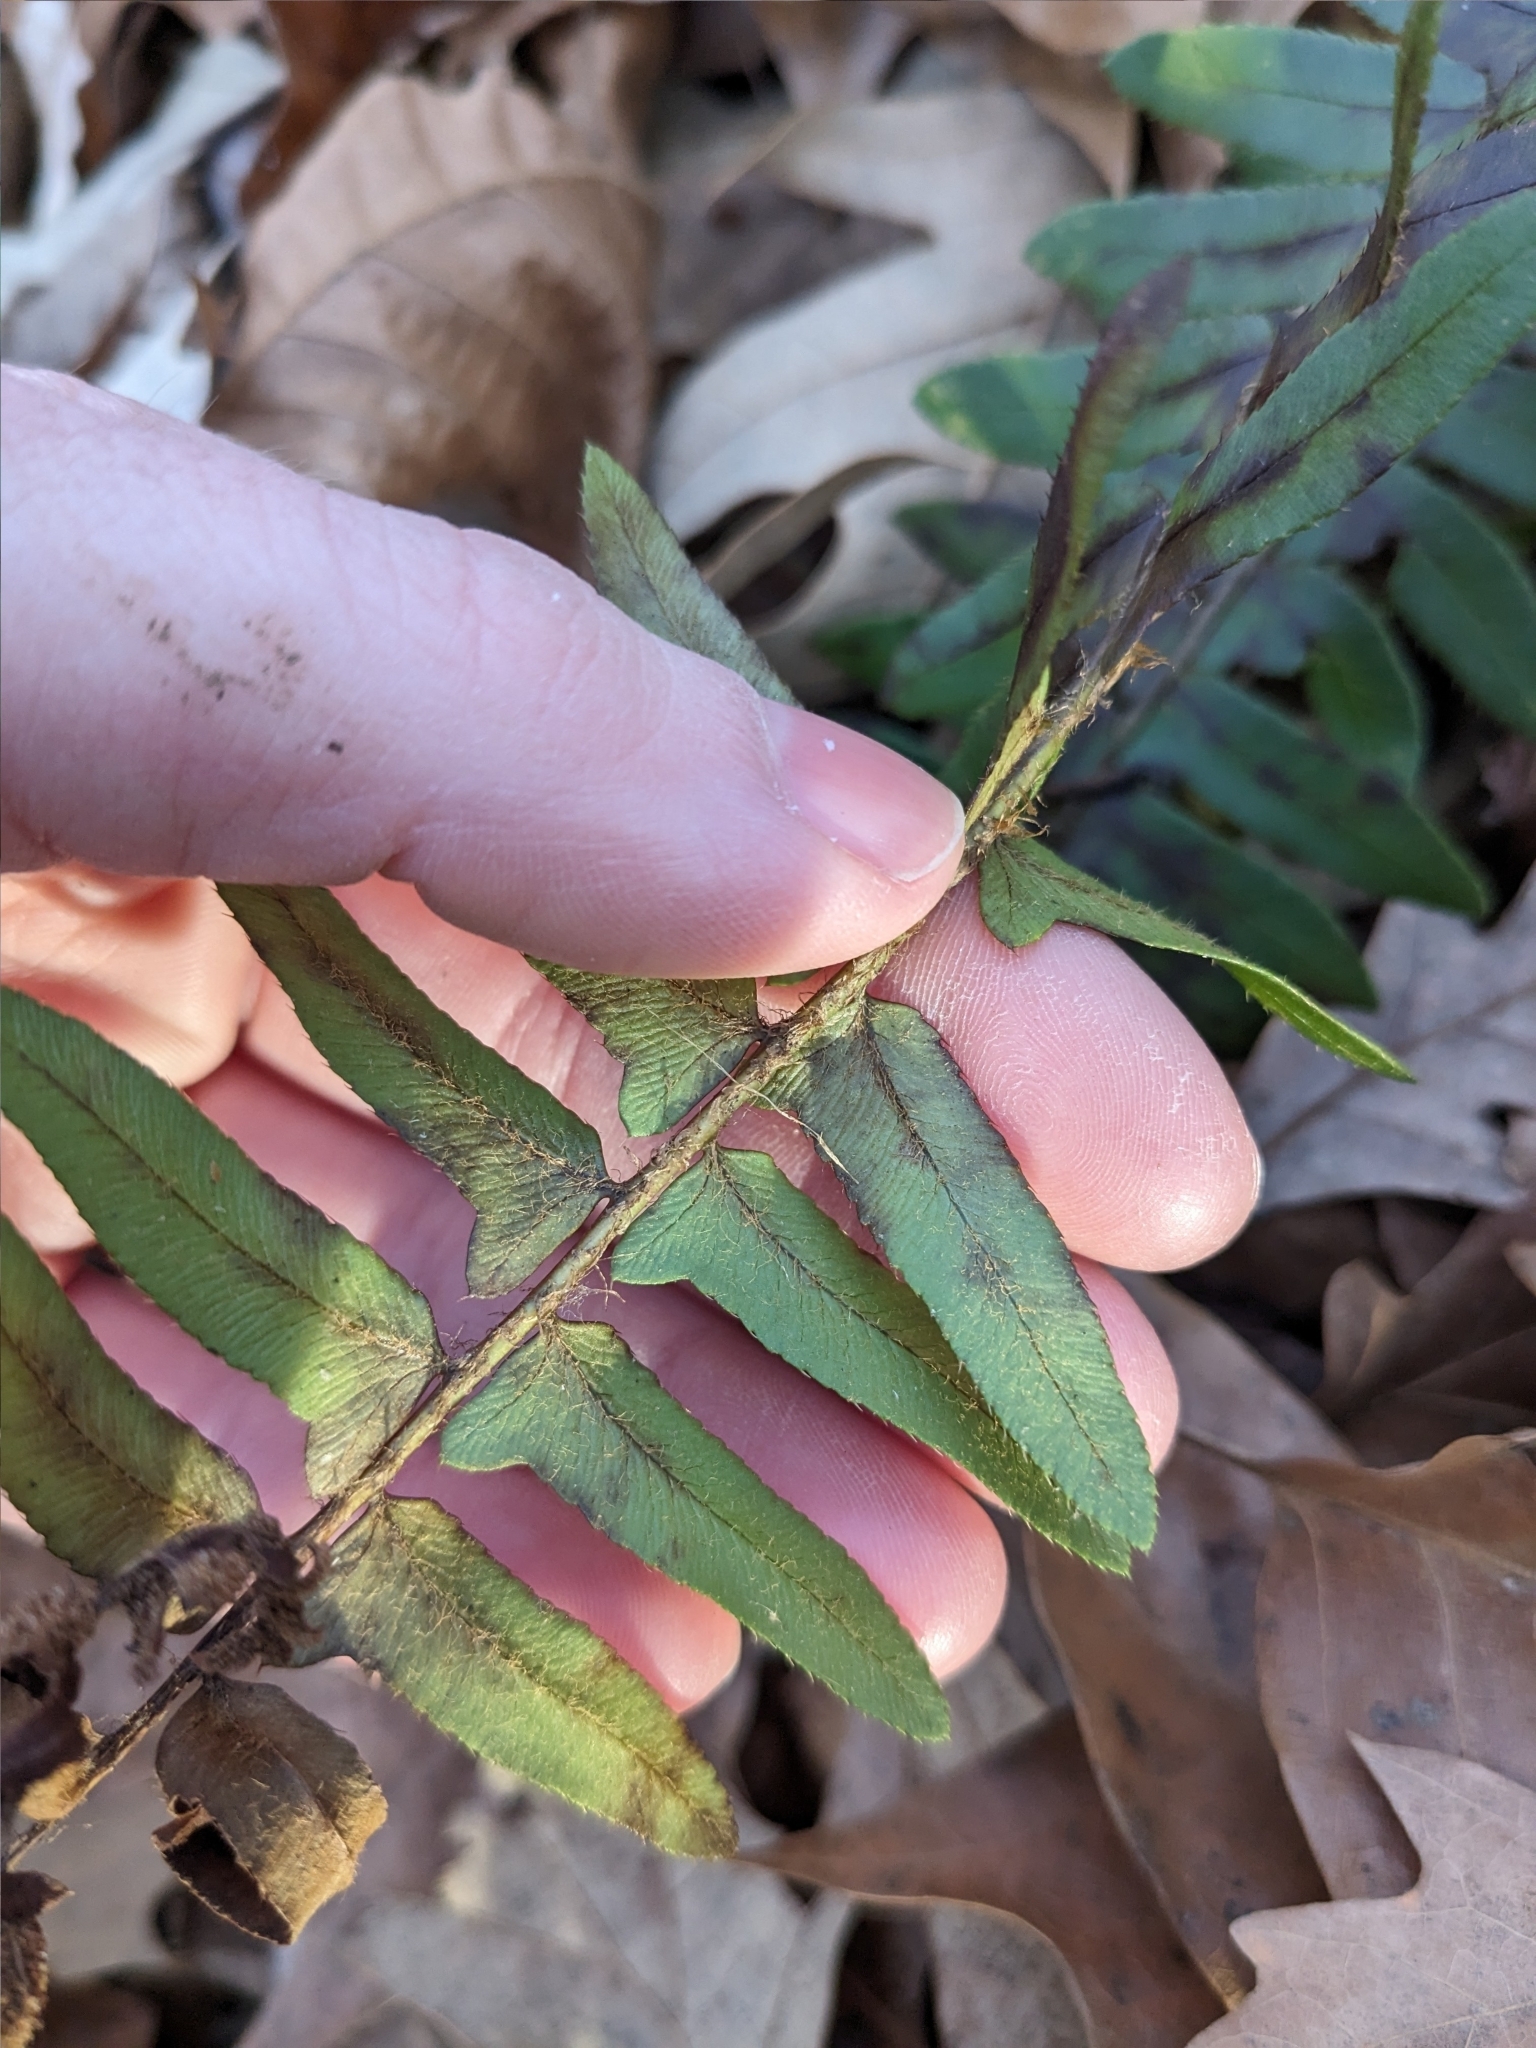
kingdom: Plantae
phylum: Tracheophyta
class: Polypodiopsida
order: Polypodiales
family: Dryopteridaceae
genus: Polystichum
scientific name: Polystichum acrostichoides
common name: Christmas fern
